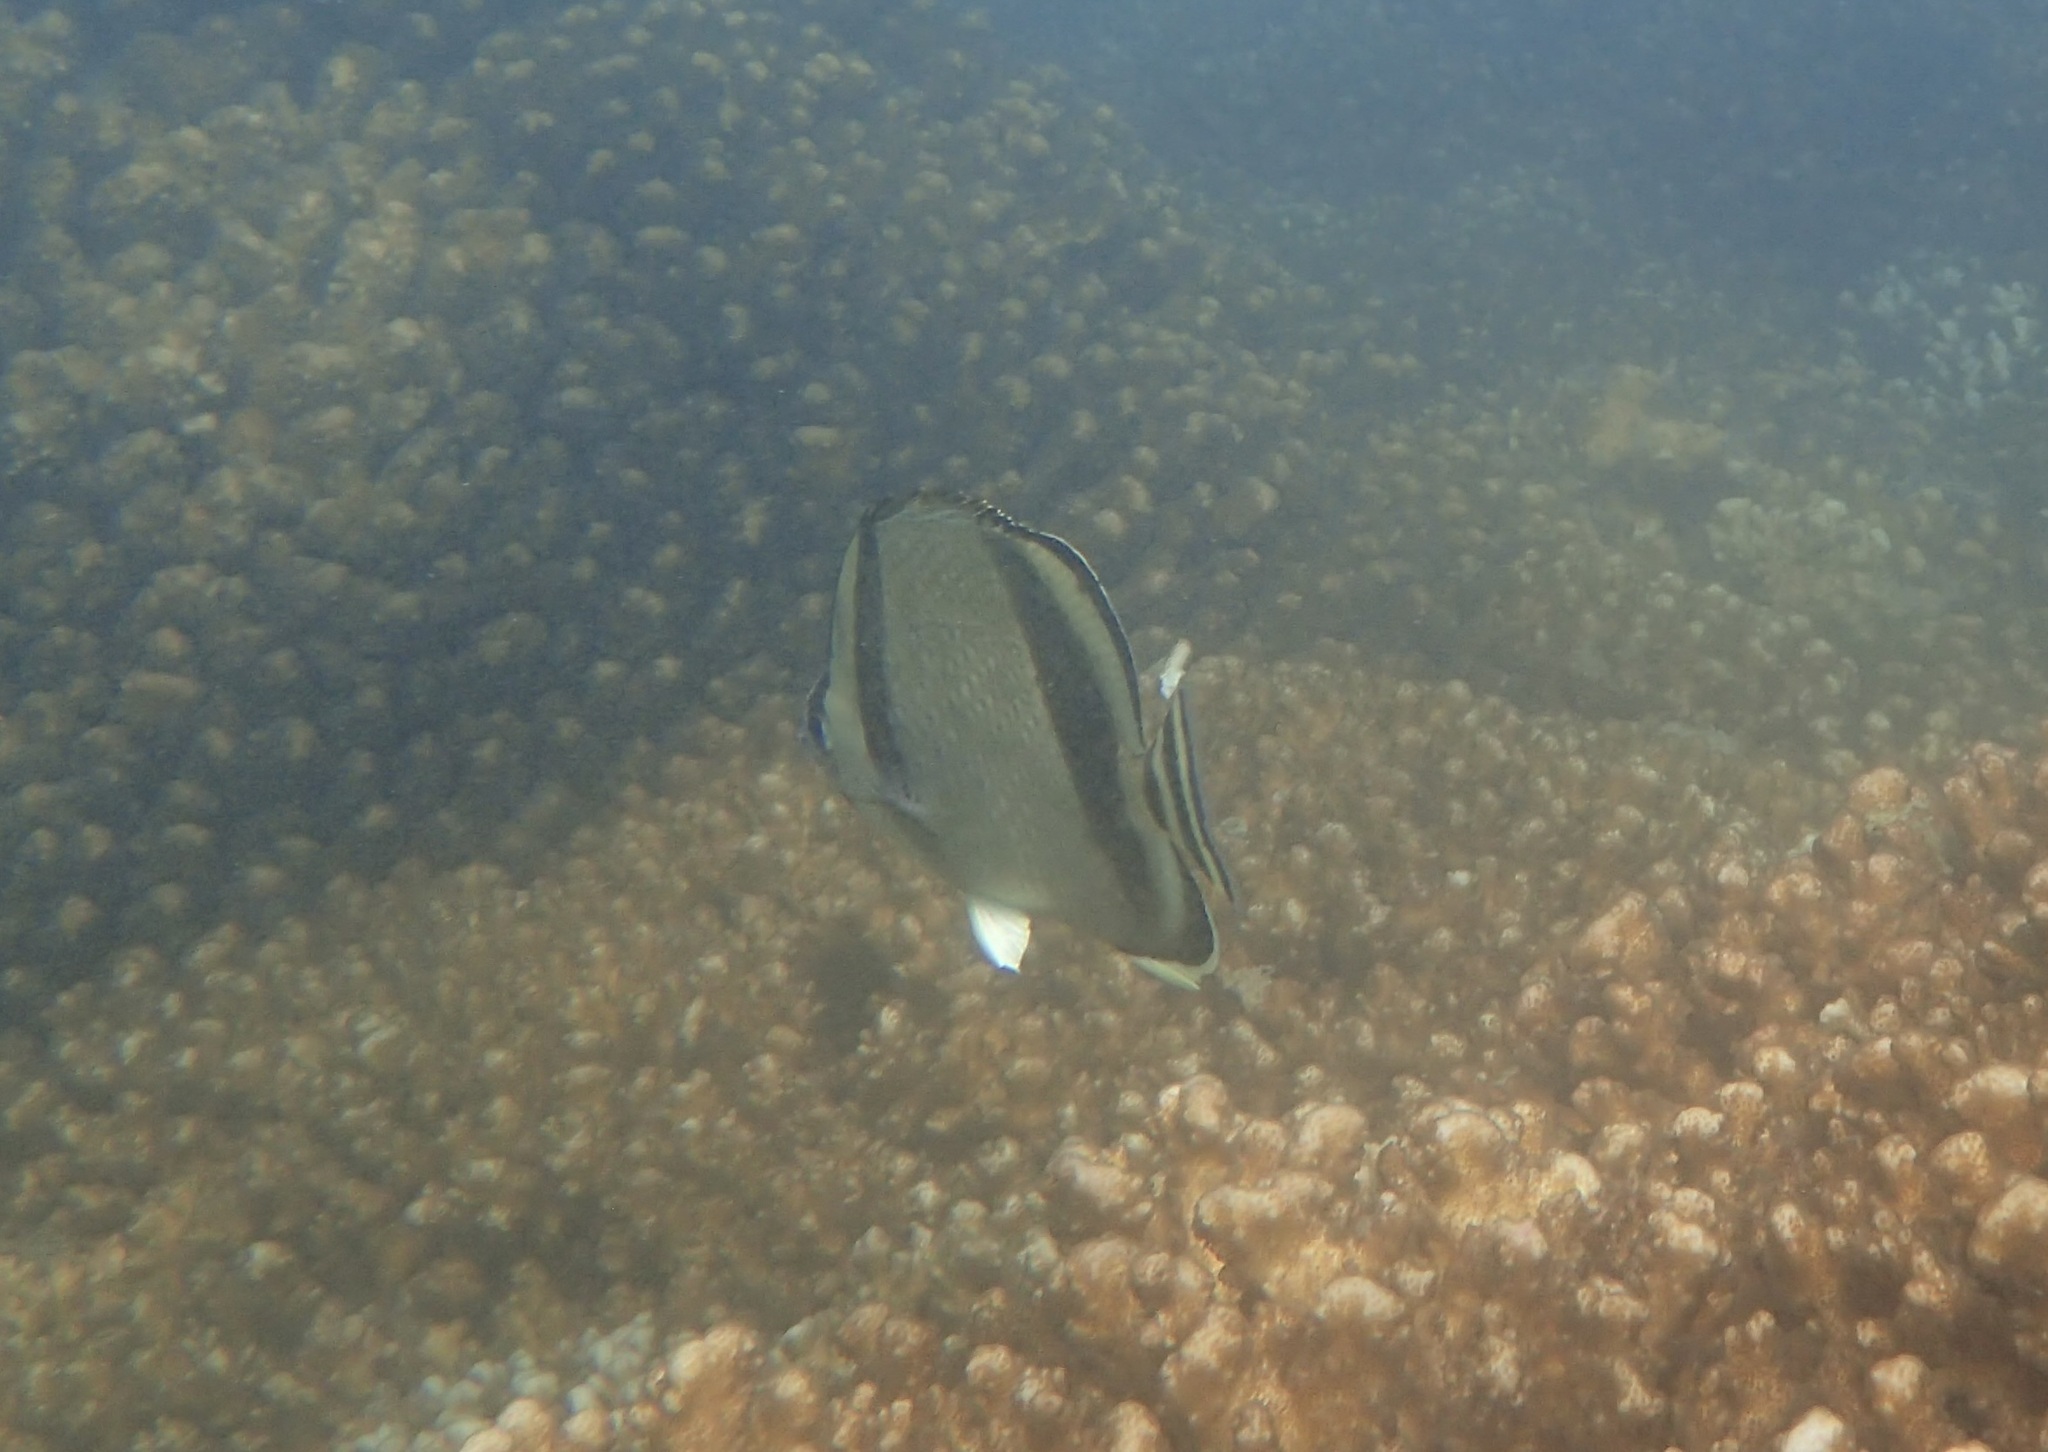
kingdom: Animalia
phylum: Chordata
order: Perciformes
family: Chaetodontidae
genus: Chaetodon
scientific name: Chaetodon humeralis
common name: Threebanded butterflyfish
